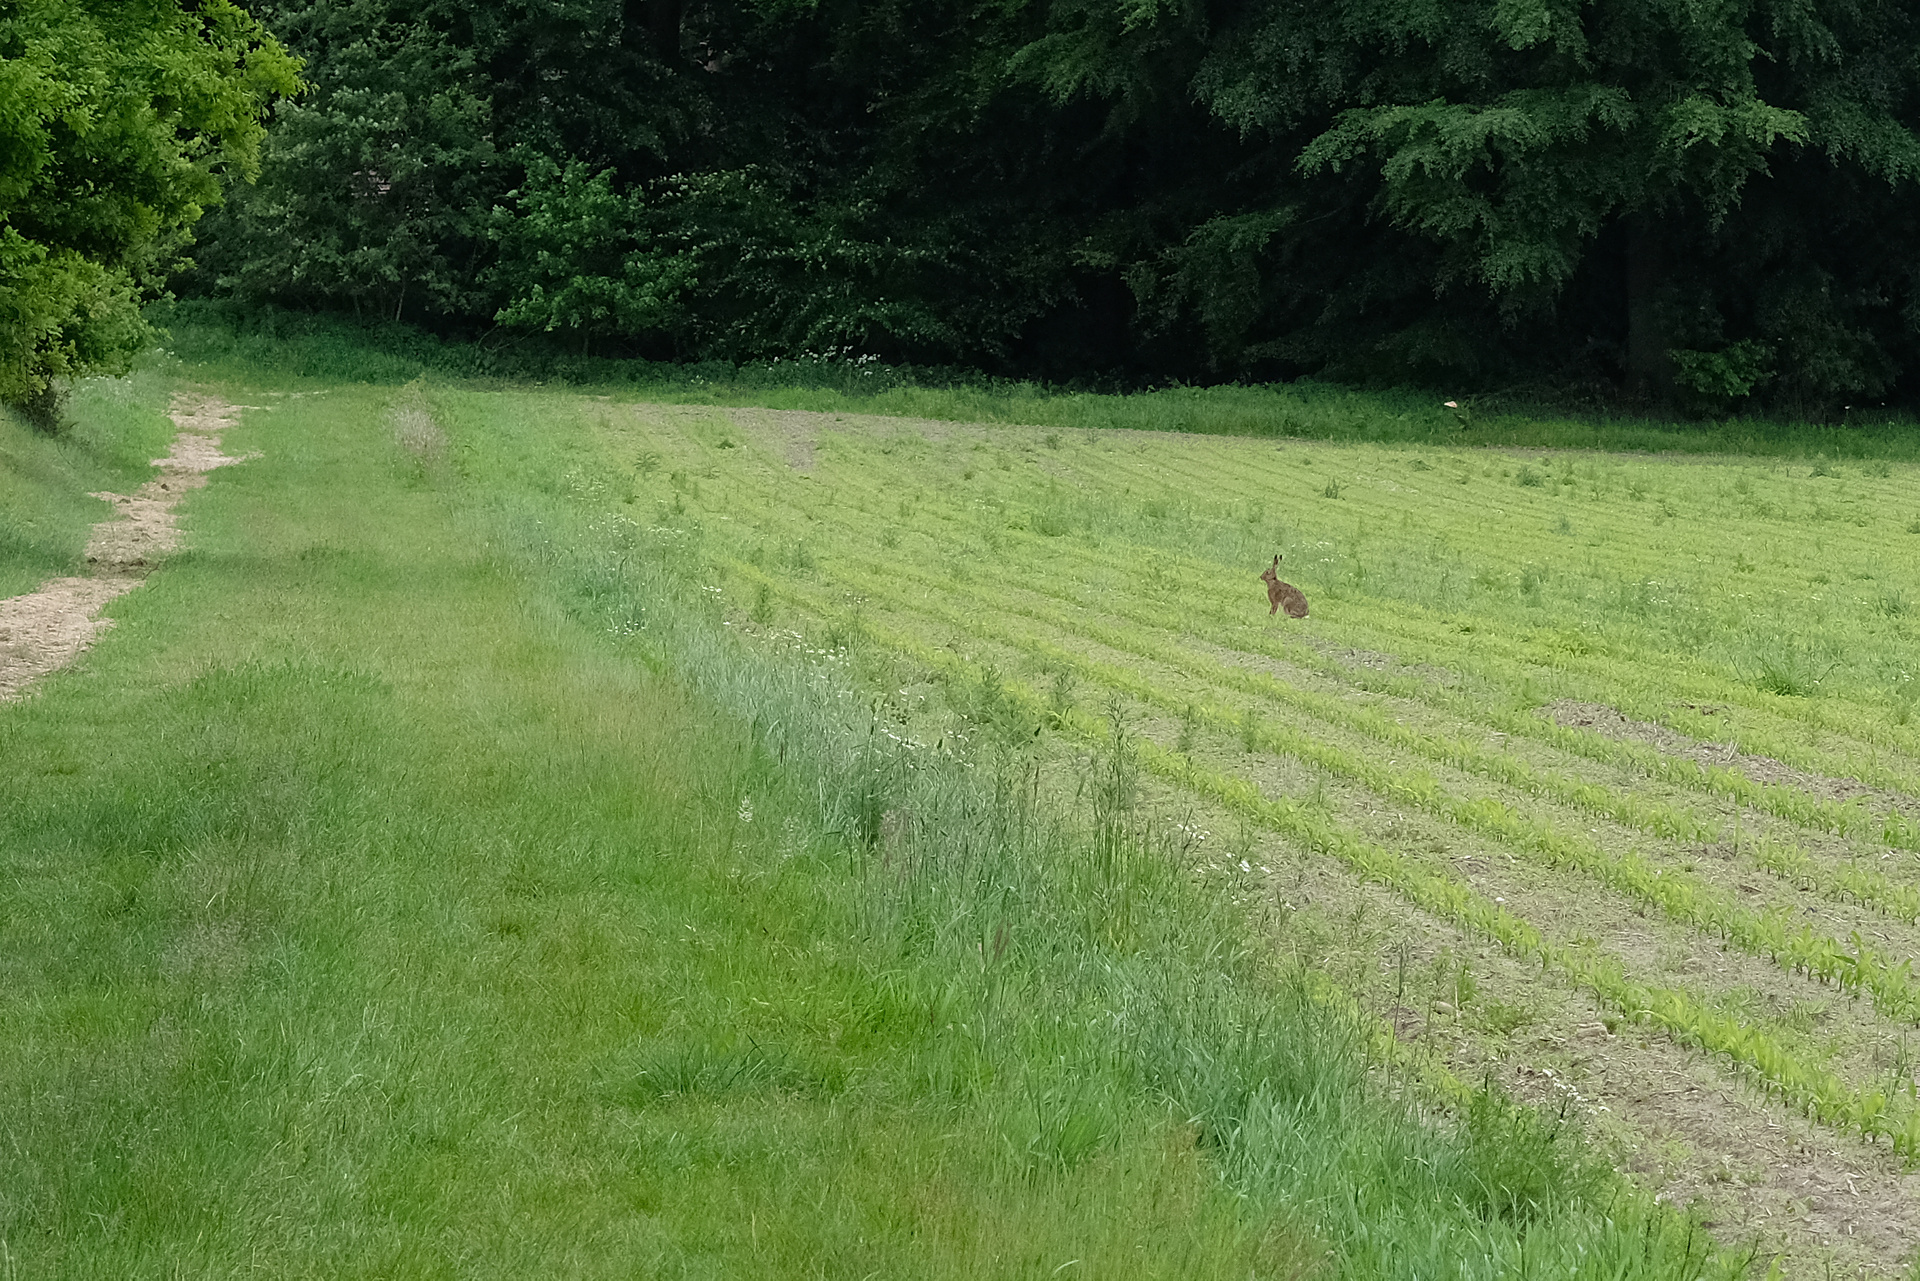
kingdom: Animalia
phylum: Chordata
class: Mammalia
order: Lagomorpha
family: Leporidae
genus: Lepus
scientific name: Lepus europaeus
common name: European hare
